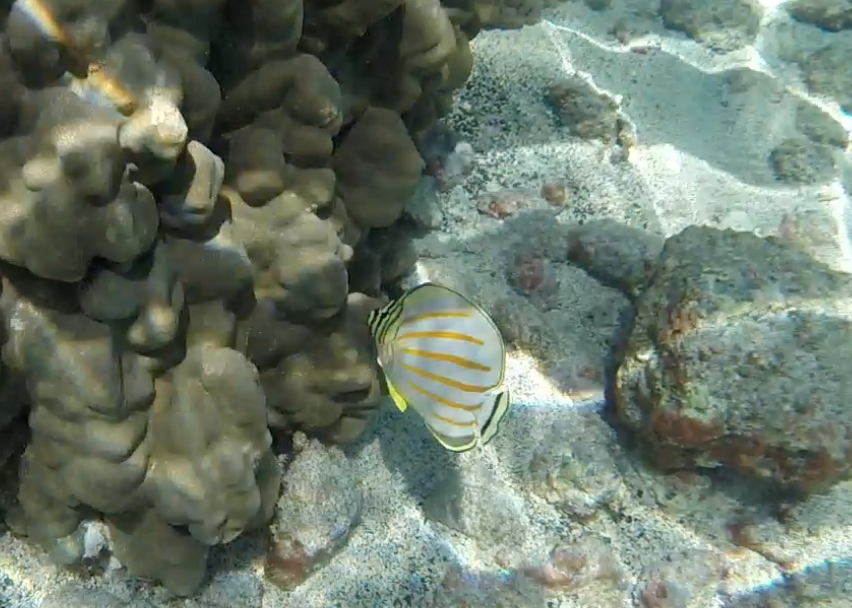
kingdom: Animalia
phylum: Chordata
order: Perciformes
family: Chaetodontidae
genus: Chaetodon
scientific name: Chaetodon ornatissimus
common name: Ornate butterflyfish
